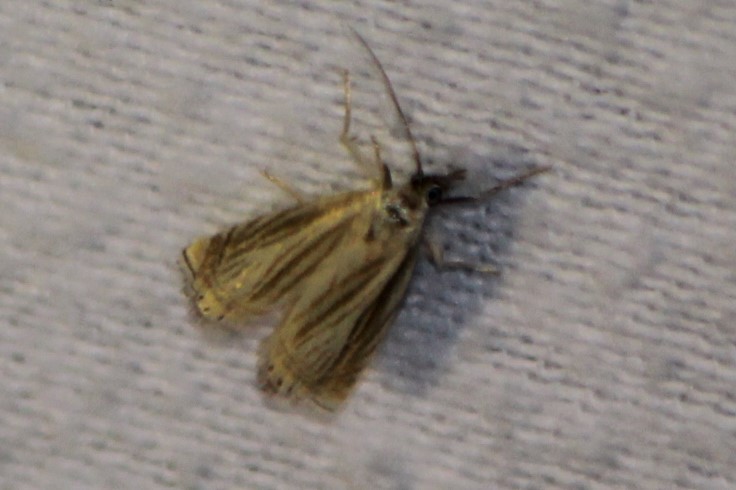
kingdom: Animalia
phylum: Arthropoda
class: Insecta
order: Lepidoptera
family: Crambidae
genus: Chrysoteuchia
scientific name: Chrysoteuchia topiarius
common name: Topiary grass-veneer
